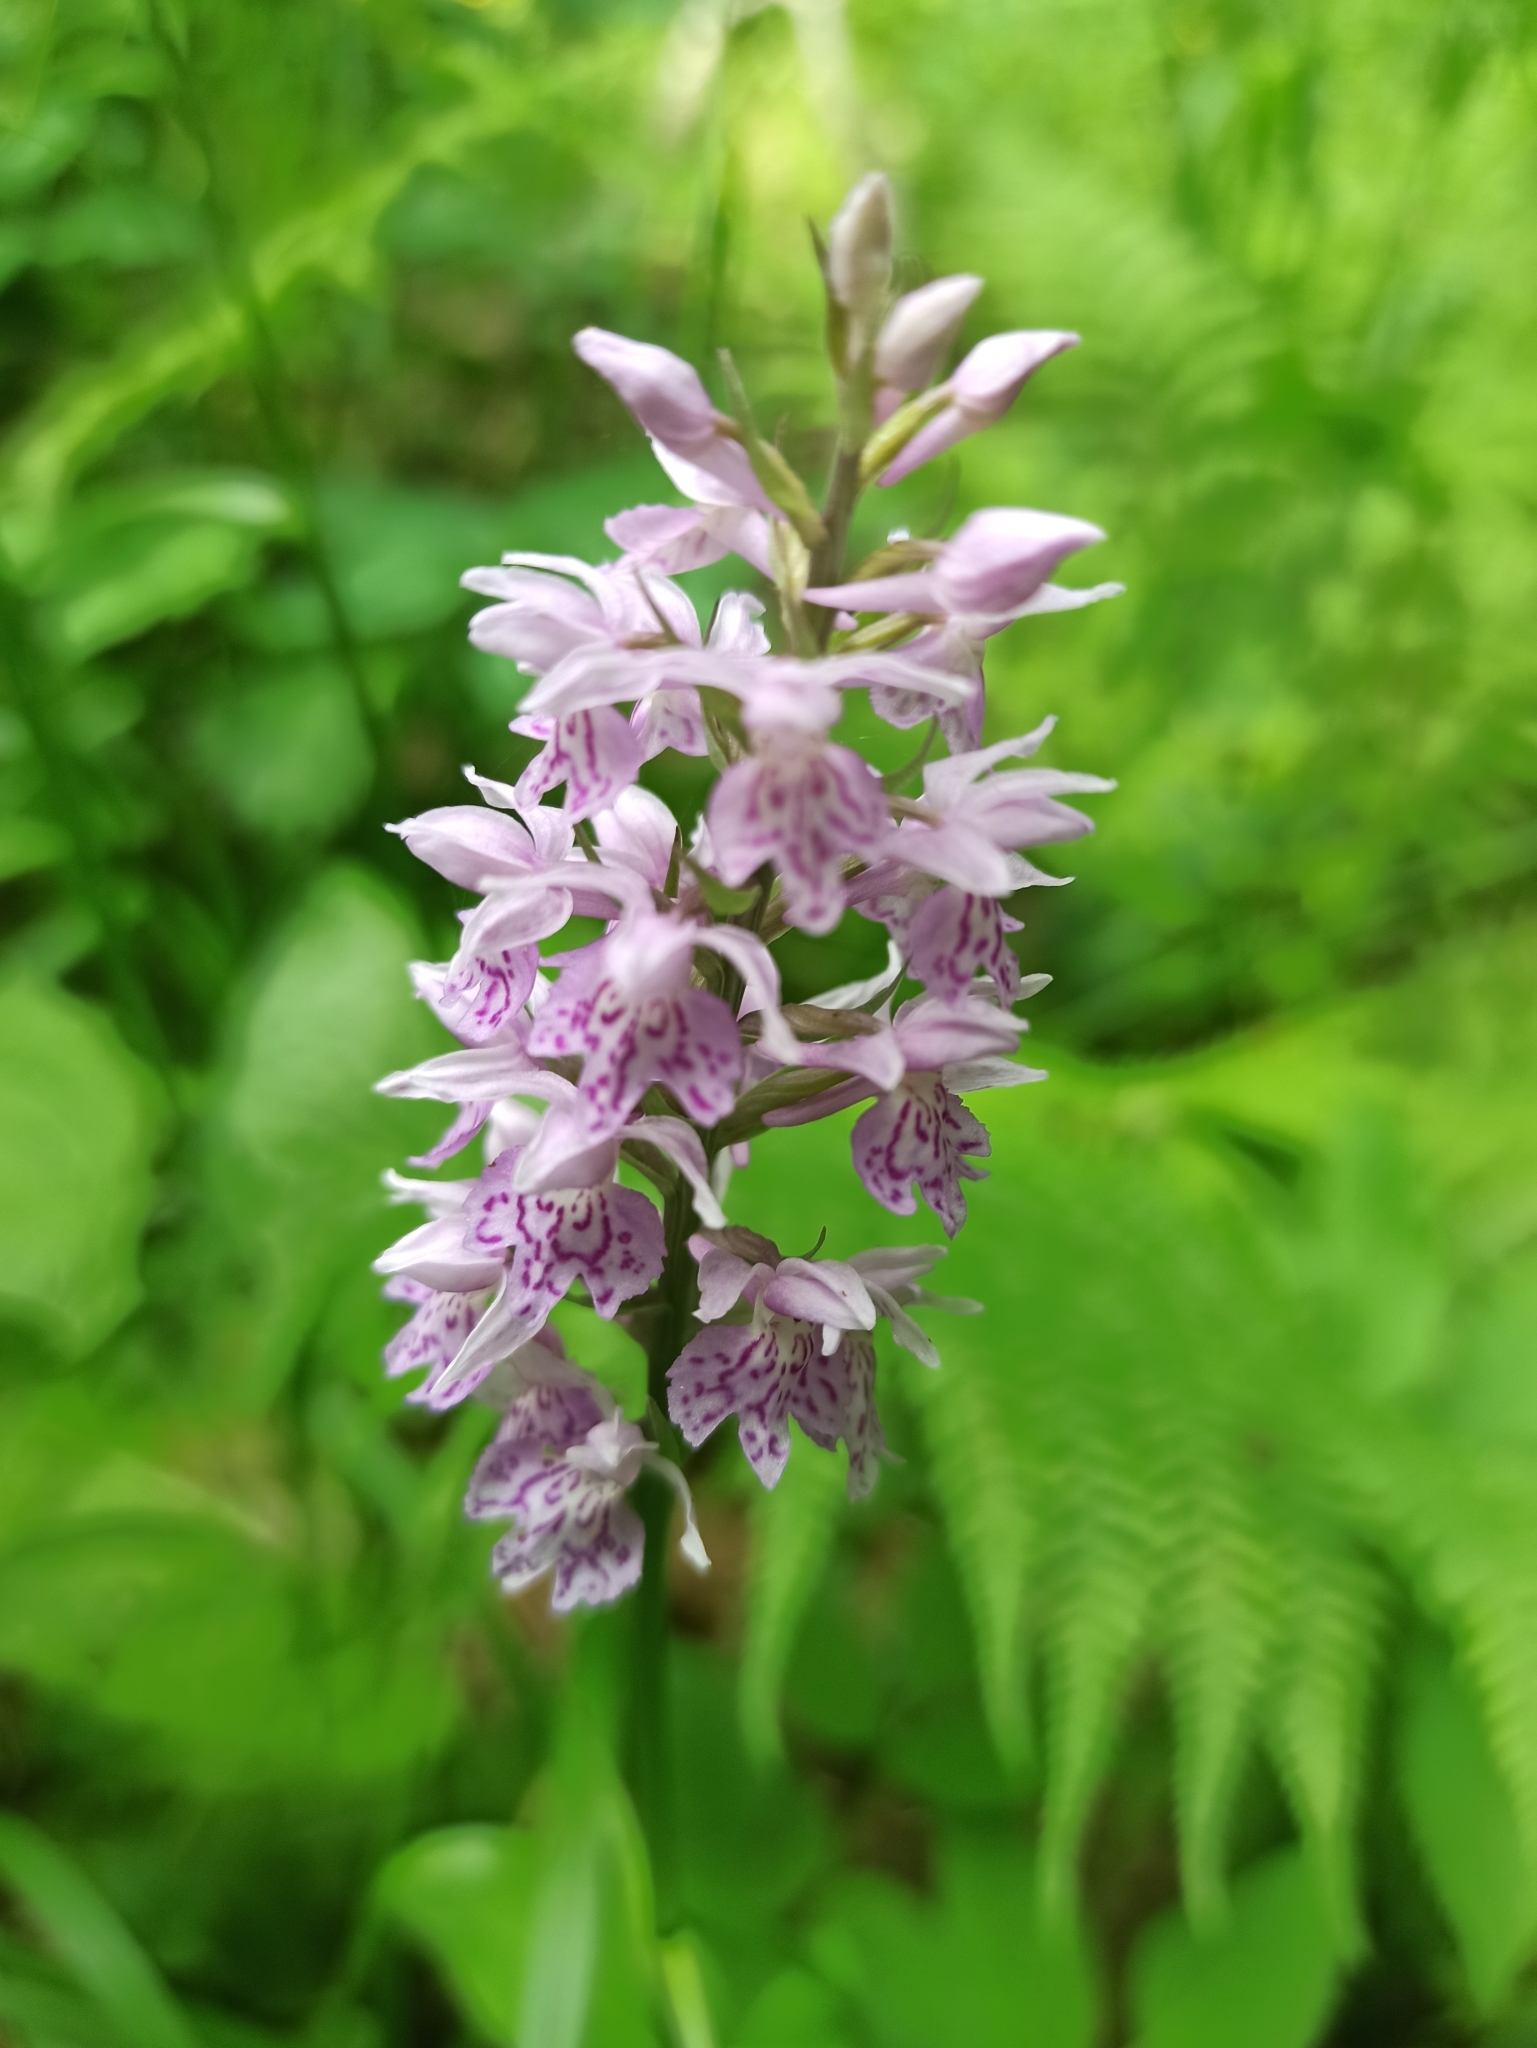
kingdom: Plantae
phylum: Tracheophyta
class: Liliopsida
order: Asparagales
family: Orchidaceae
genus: Dactylorhiza
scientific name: Dactylorhiza maculata
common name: Heath spotted-orchid
